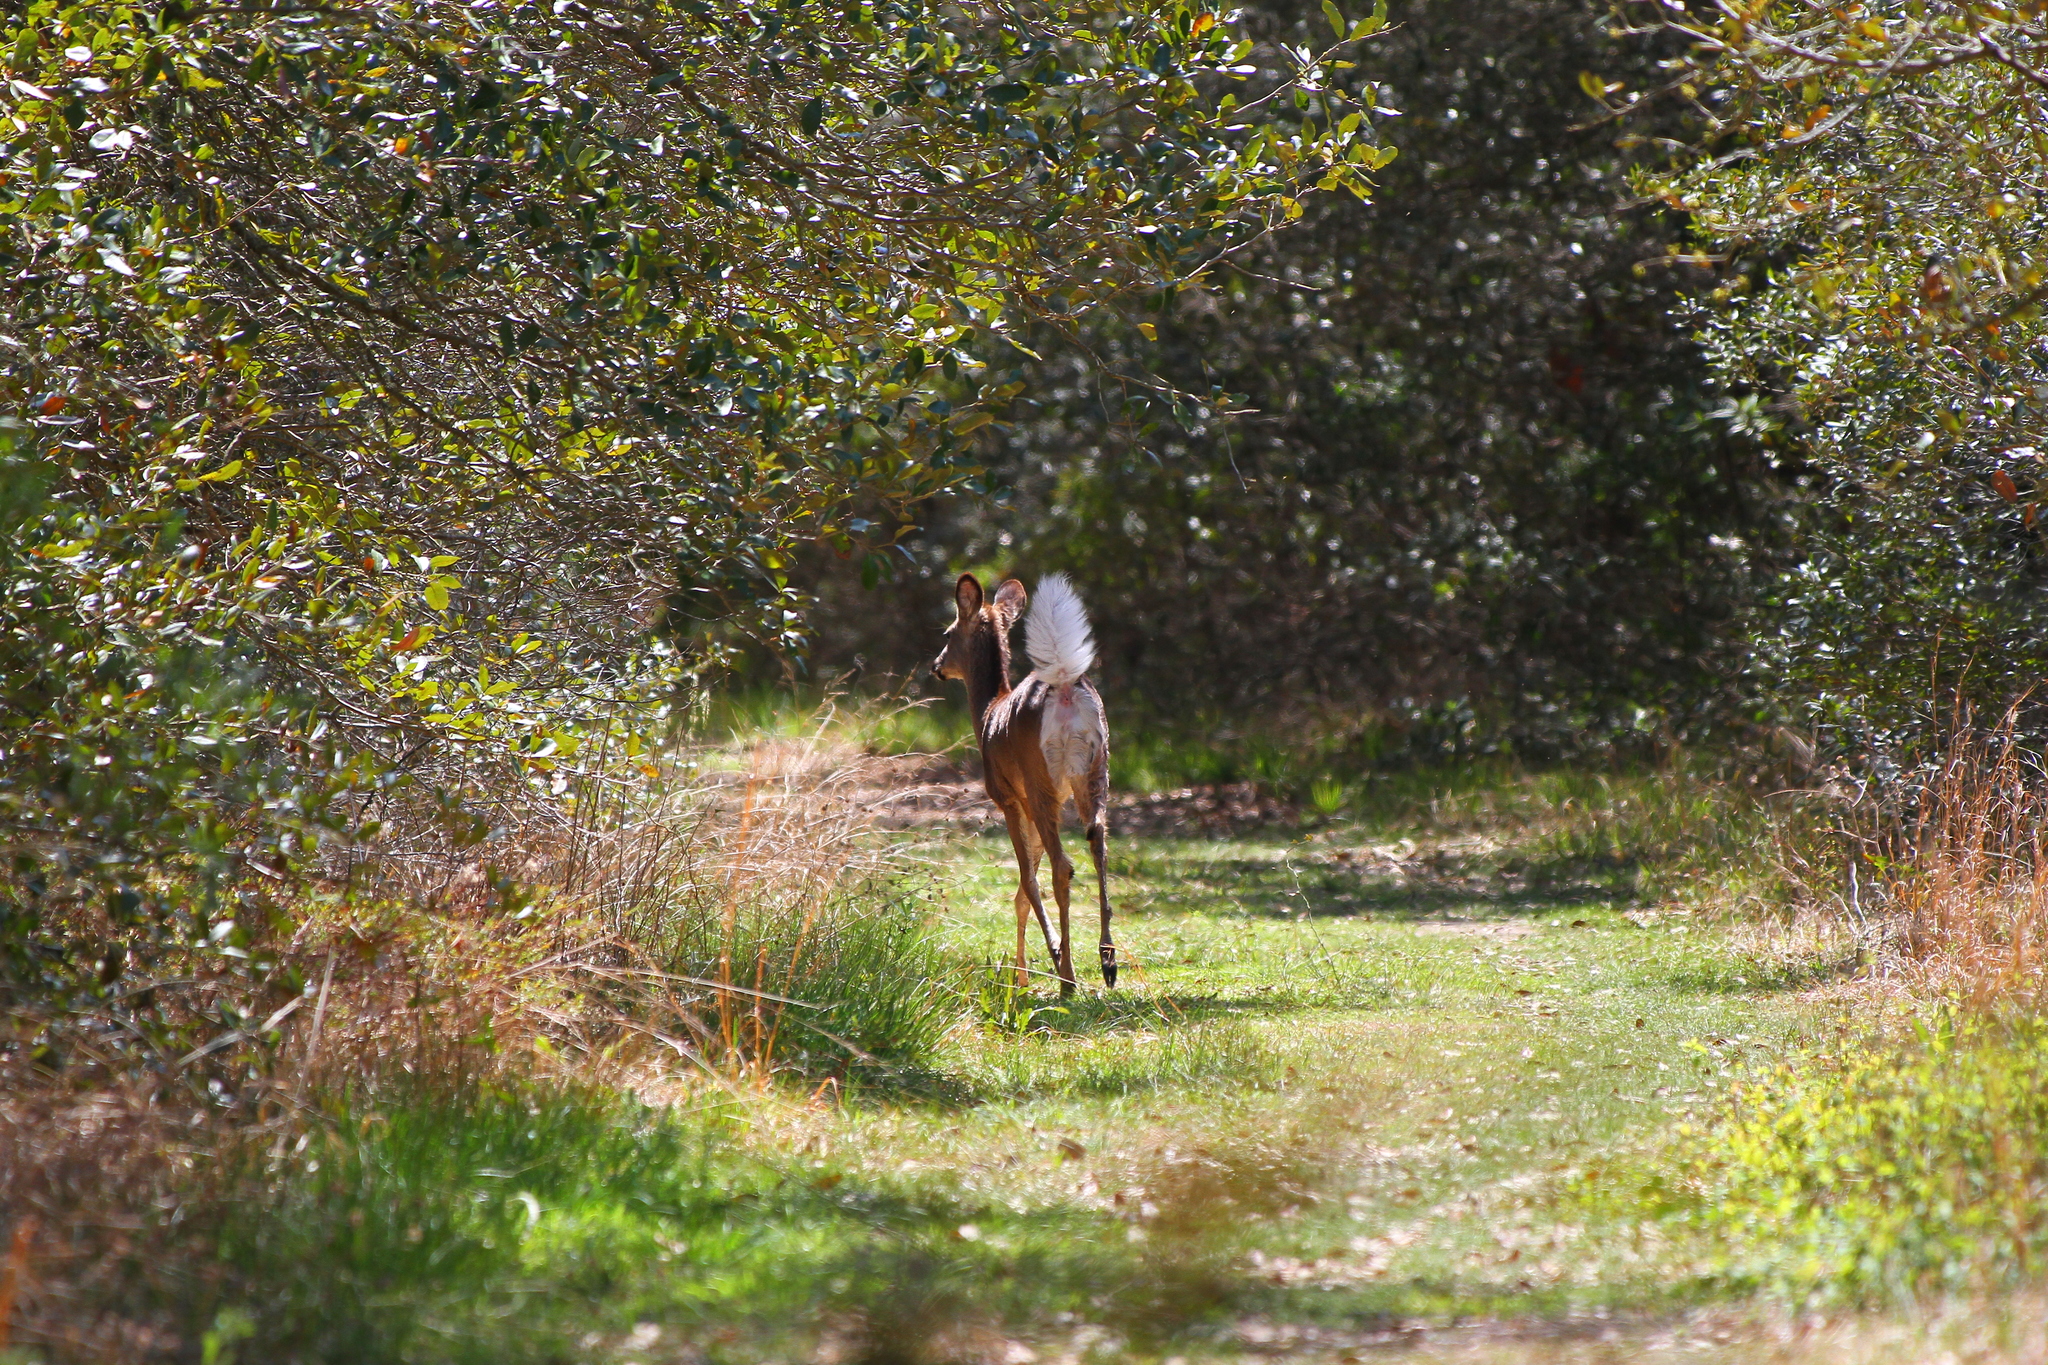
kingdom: Animalia
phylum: Chordata
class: Mammalia
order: Artiodactyla
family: Cervidae
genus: Odocoileus
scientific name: Odocoileus virginianus
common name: White-tailed deer
